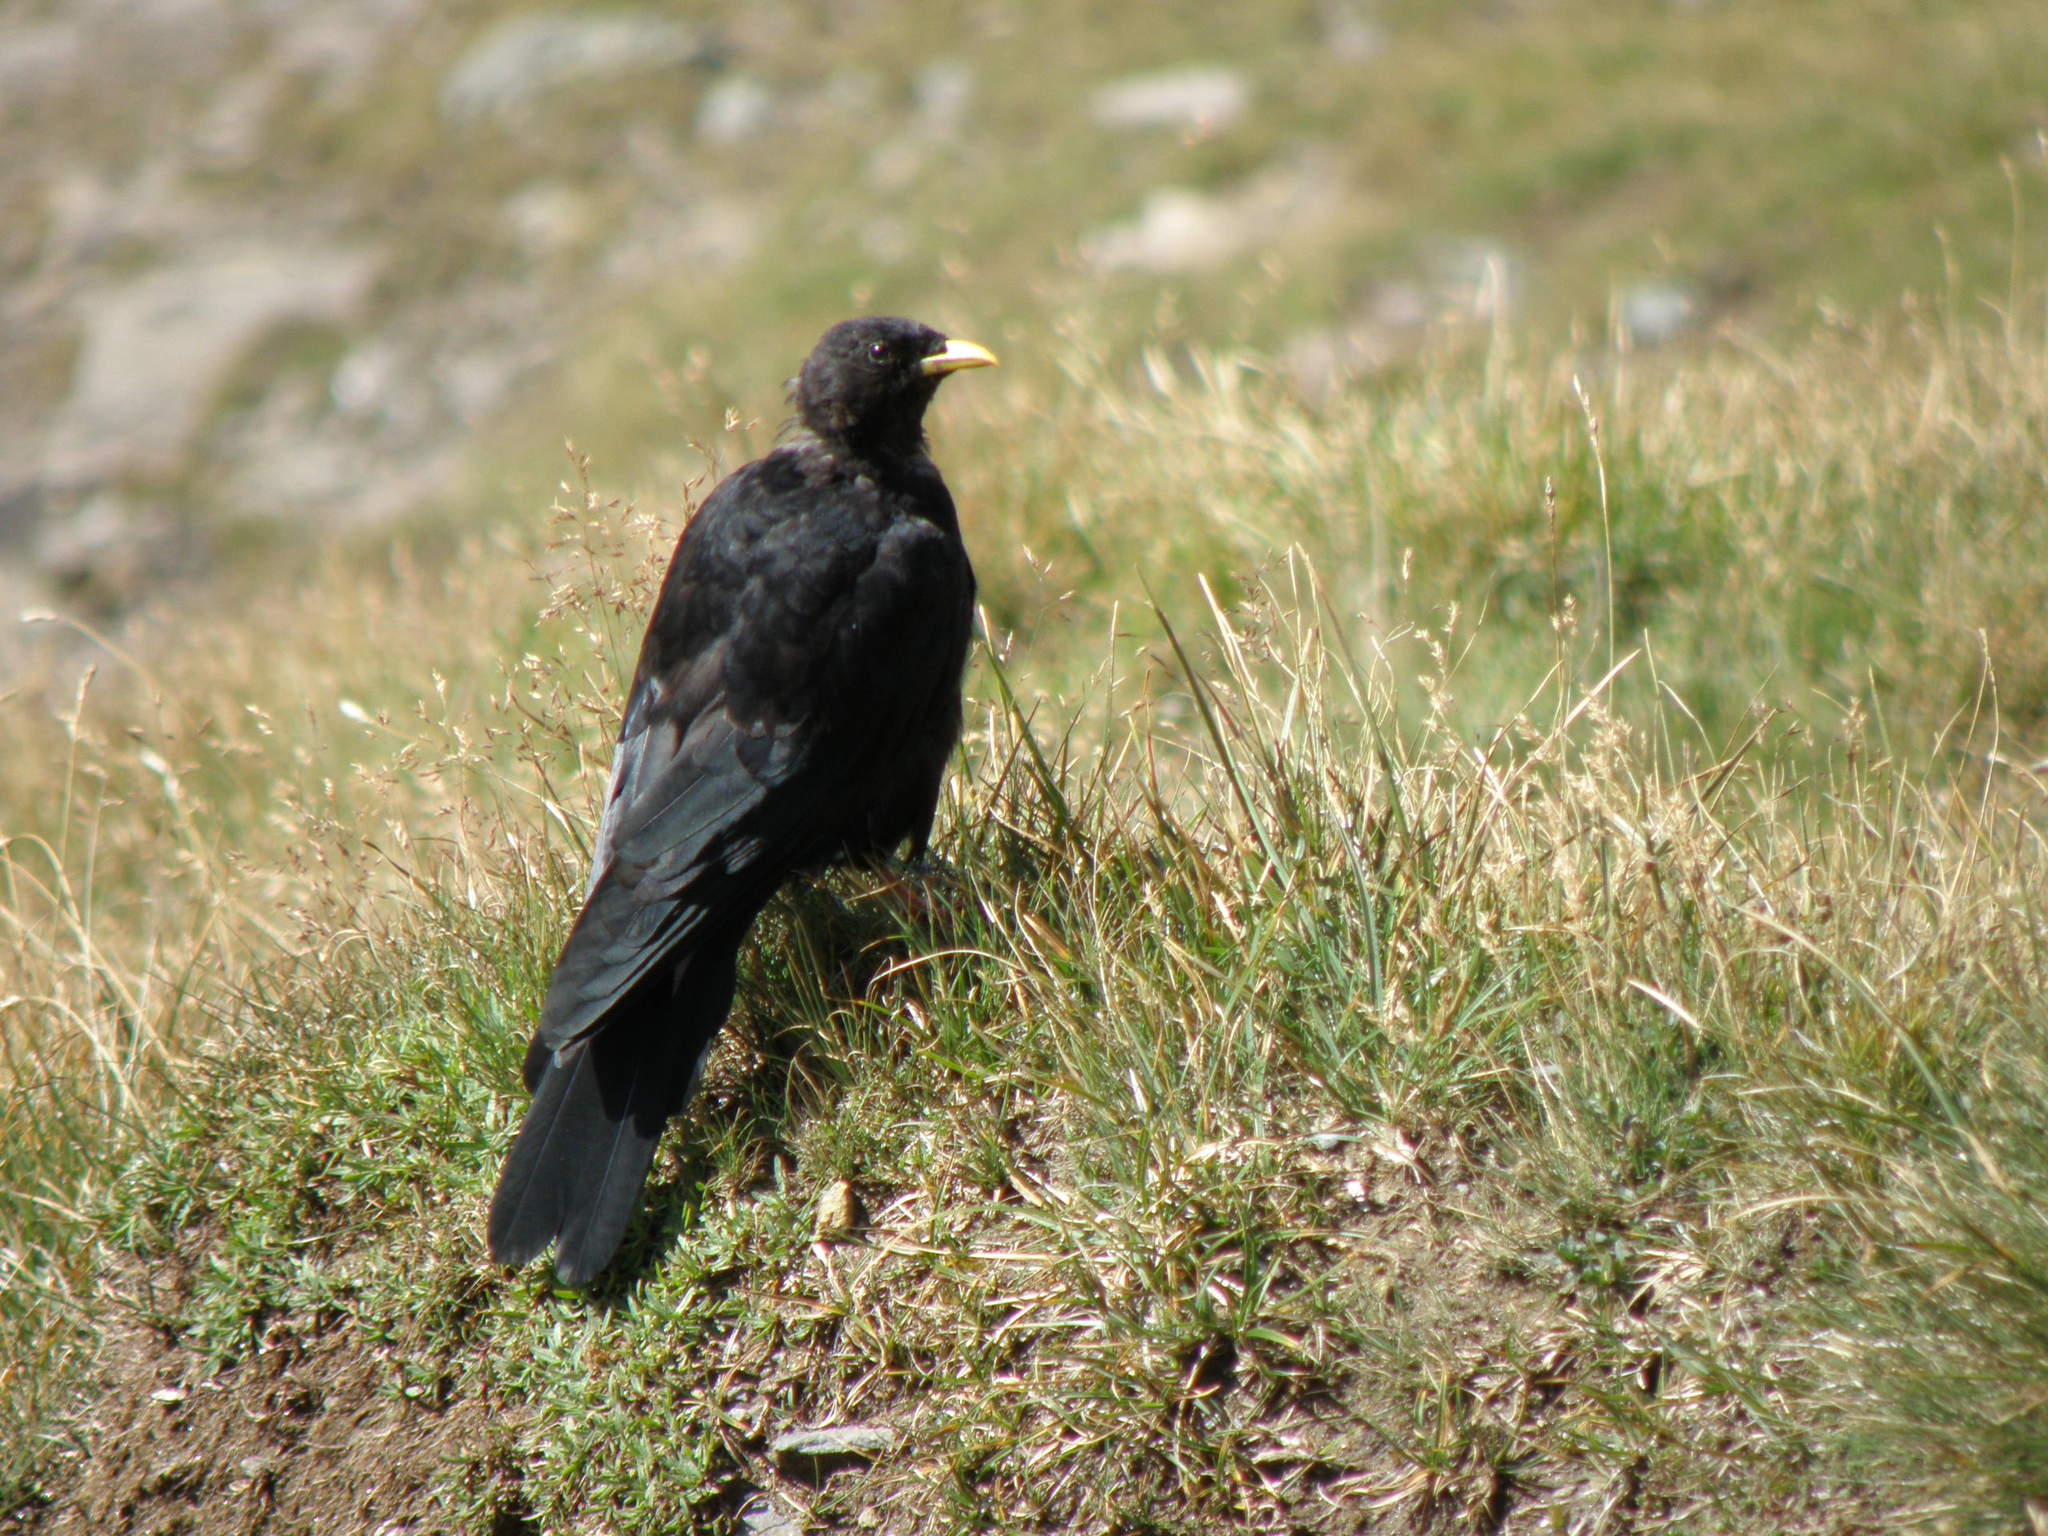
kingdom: Animalia
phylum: Chordata
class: Aves
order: Passeriformes
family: Corvidae
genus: Pyrrhocorax
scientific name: Pyrrhocorax graculus
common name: Alpine chough
